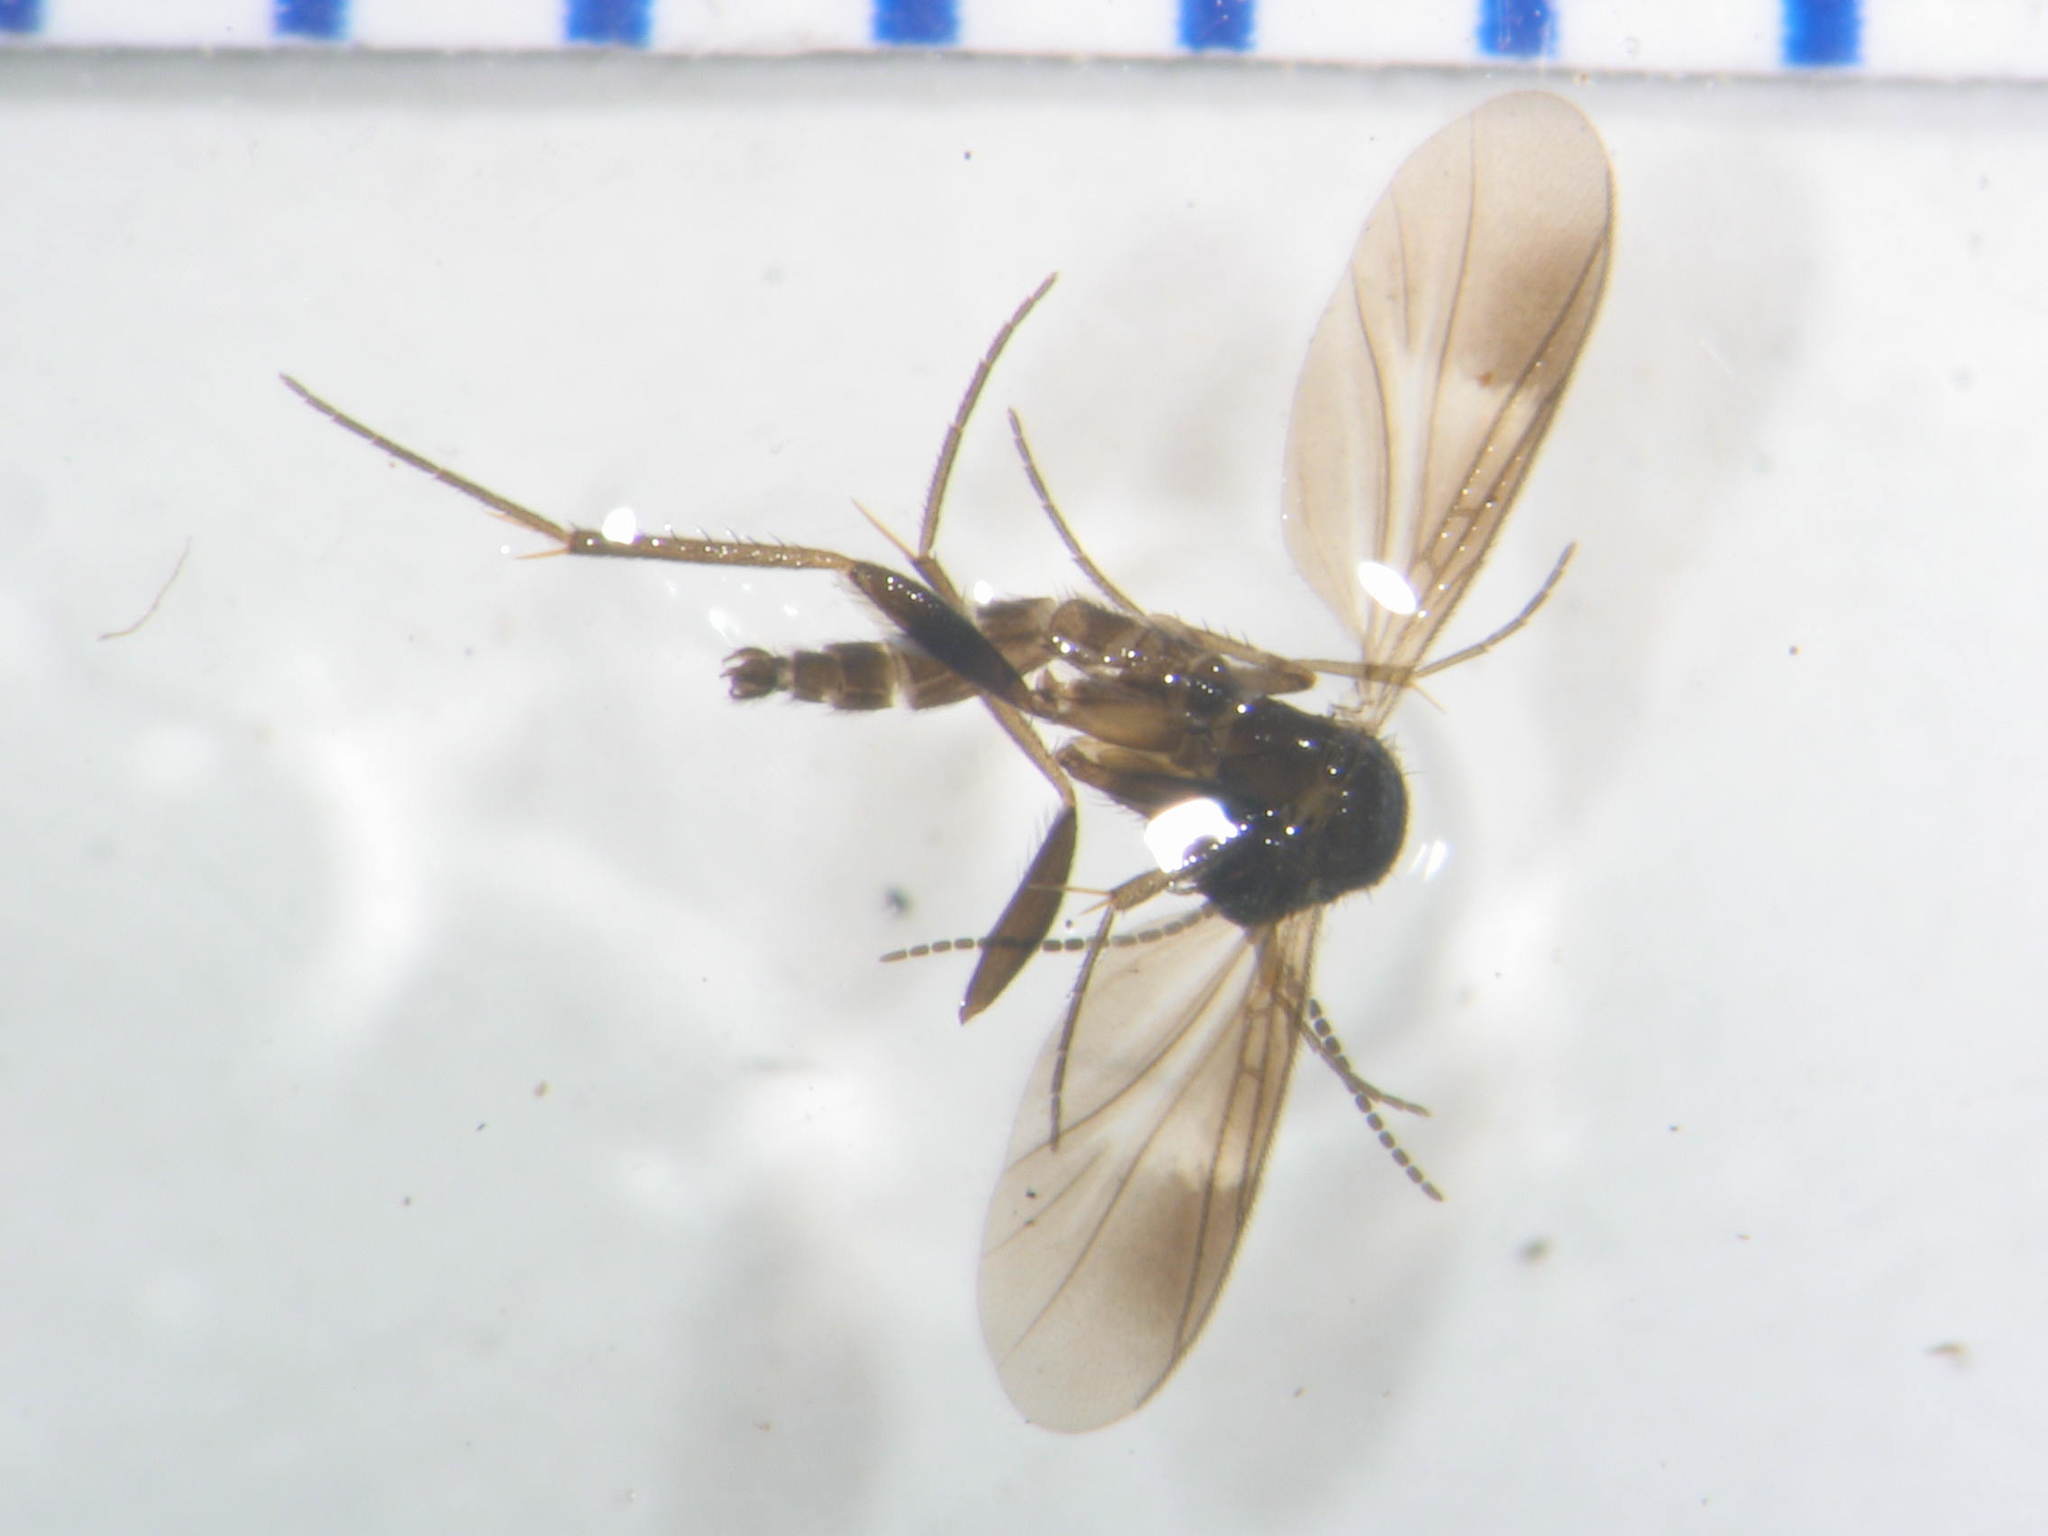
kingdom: Animalia
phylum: Arthropoda
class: Insecta
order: Diptera
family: Mycetophilidae
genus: Paratrizygia
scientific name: Paratrizygia conformis
